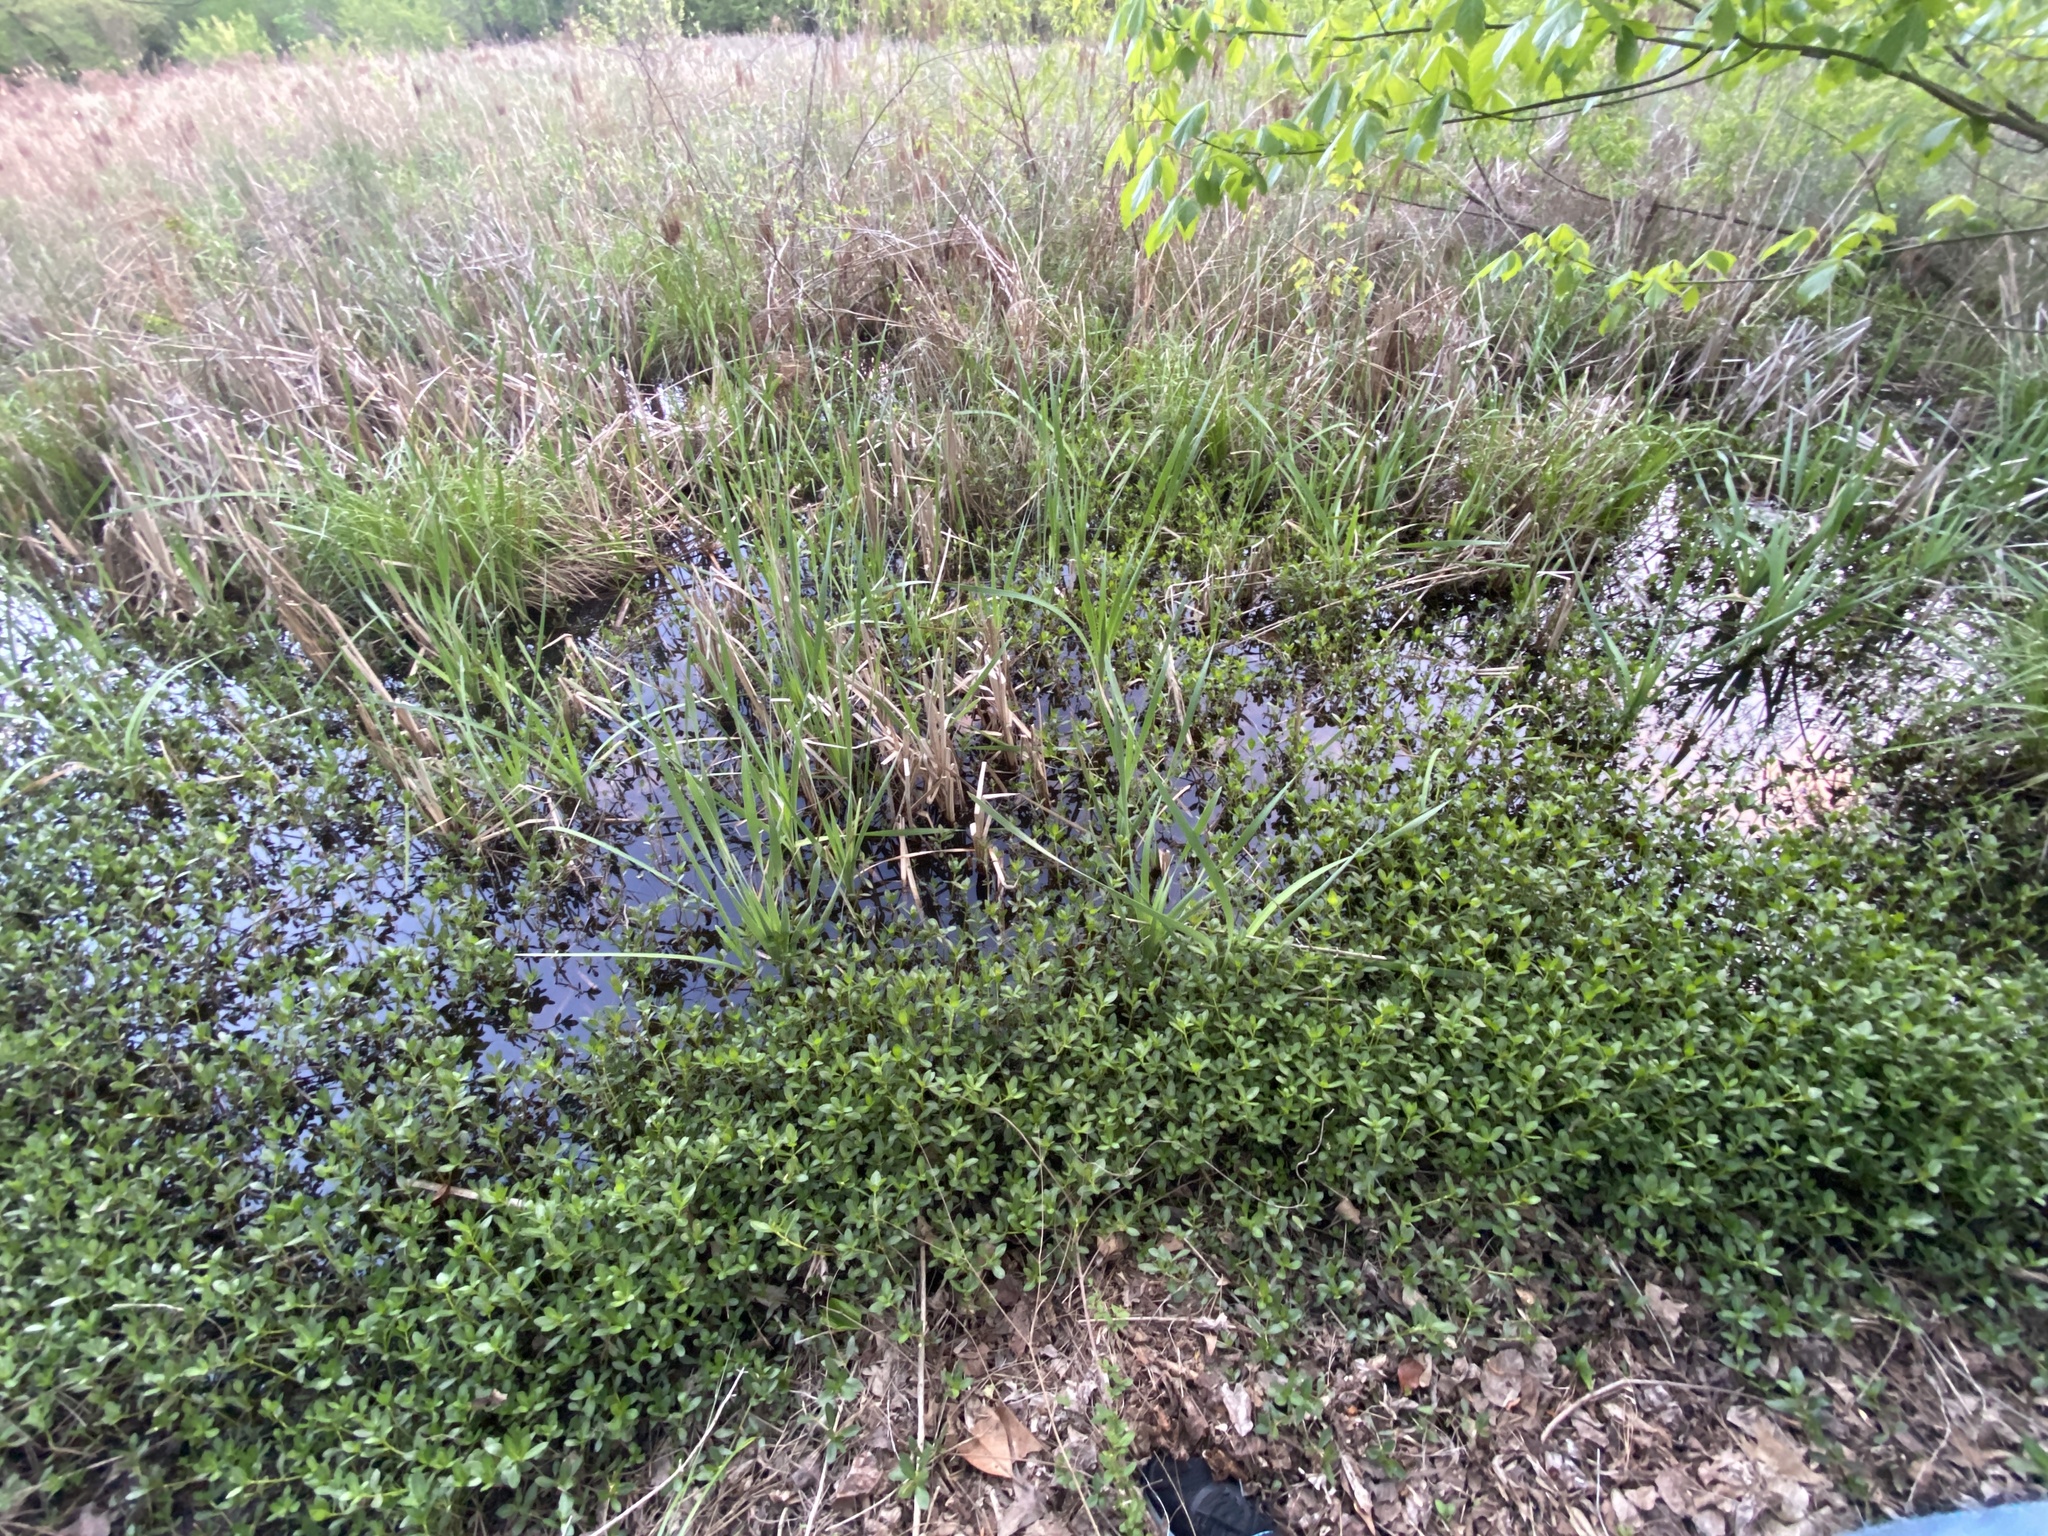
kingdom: Plantae
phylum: Tracheophyta
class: Magnoliopsida
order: Caryophyllales
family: Amaranthaceae
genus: Alternanthera
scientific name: Alternanthera philoxeroides
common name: Alligatorweed
